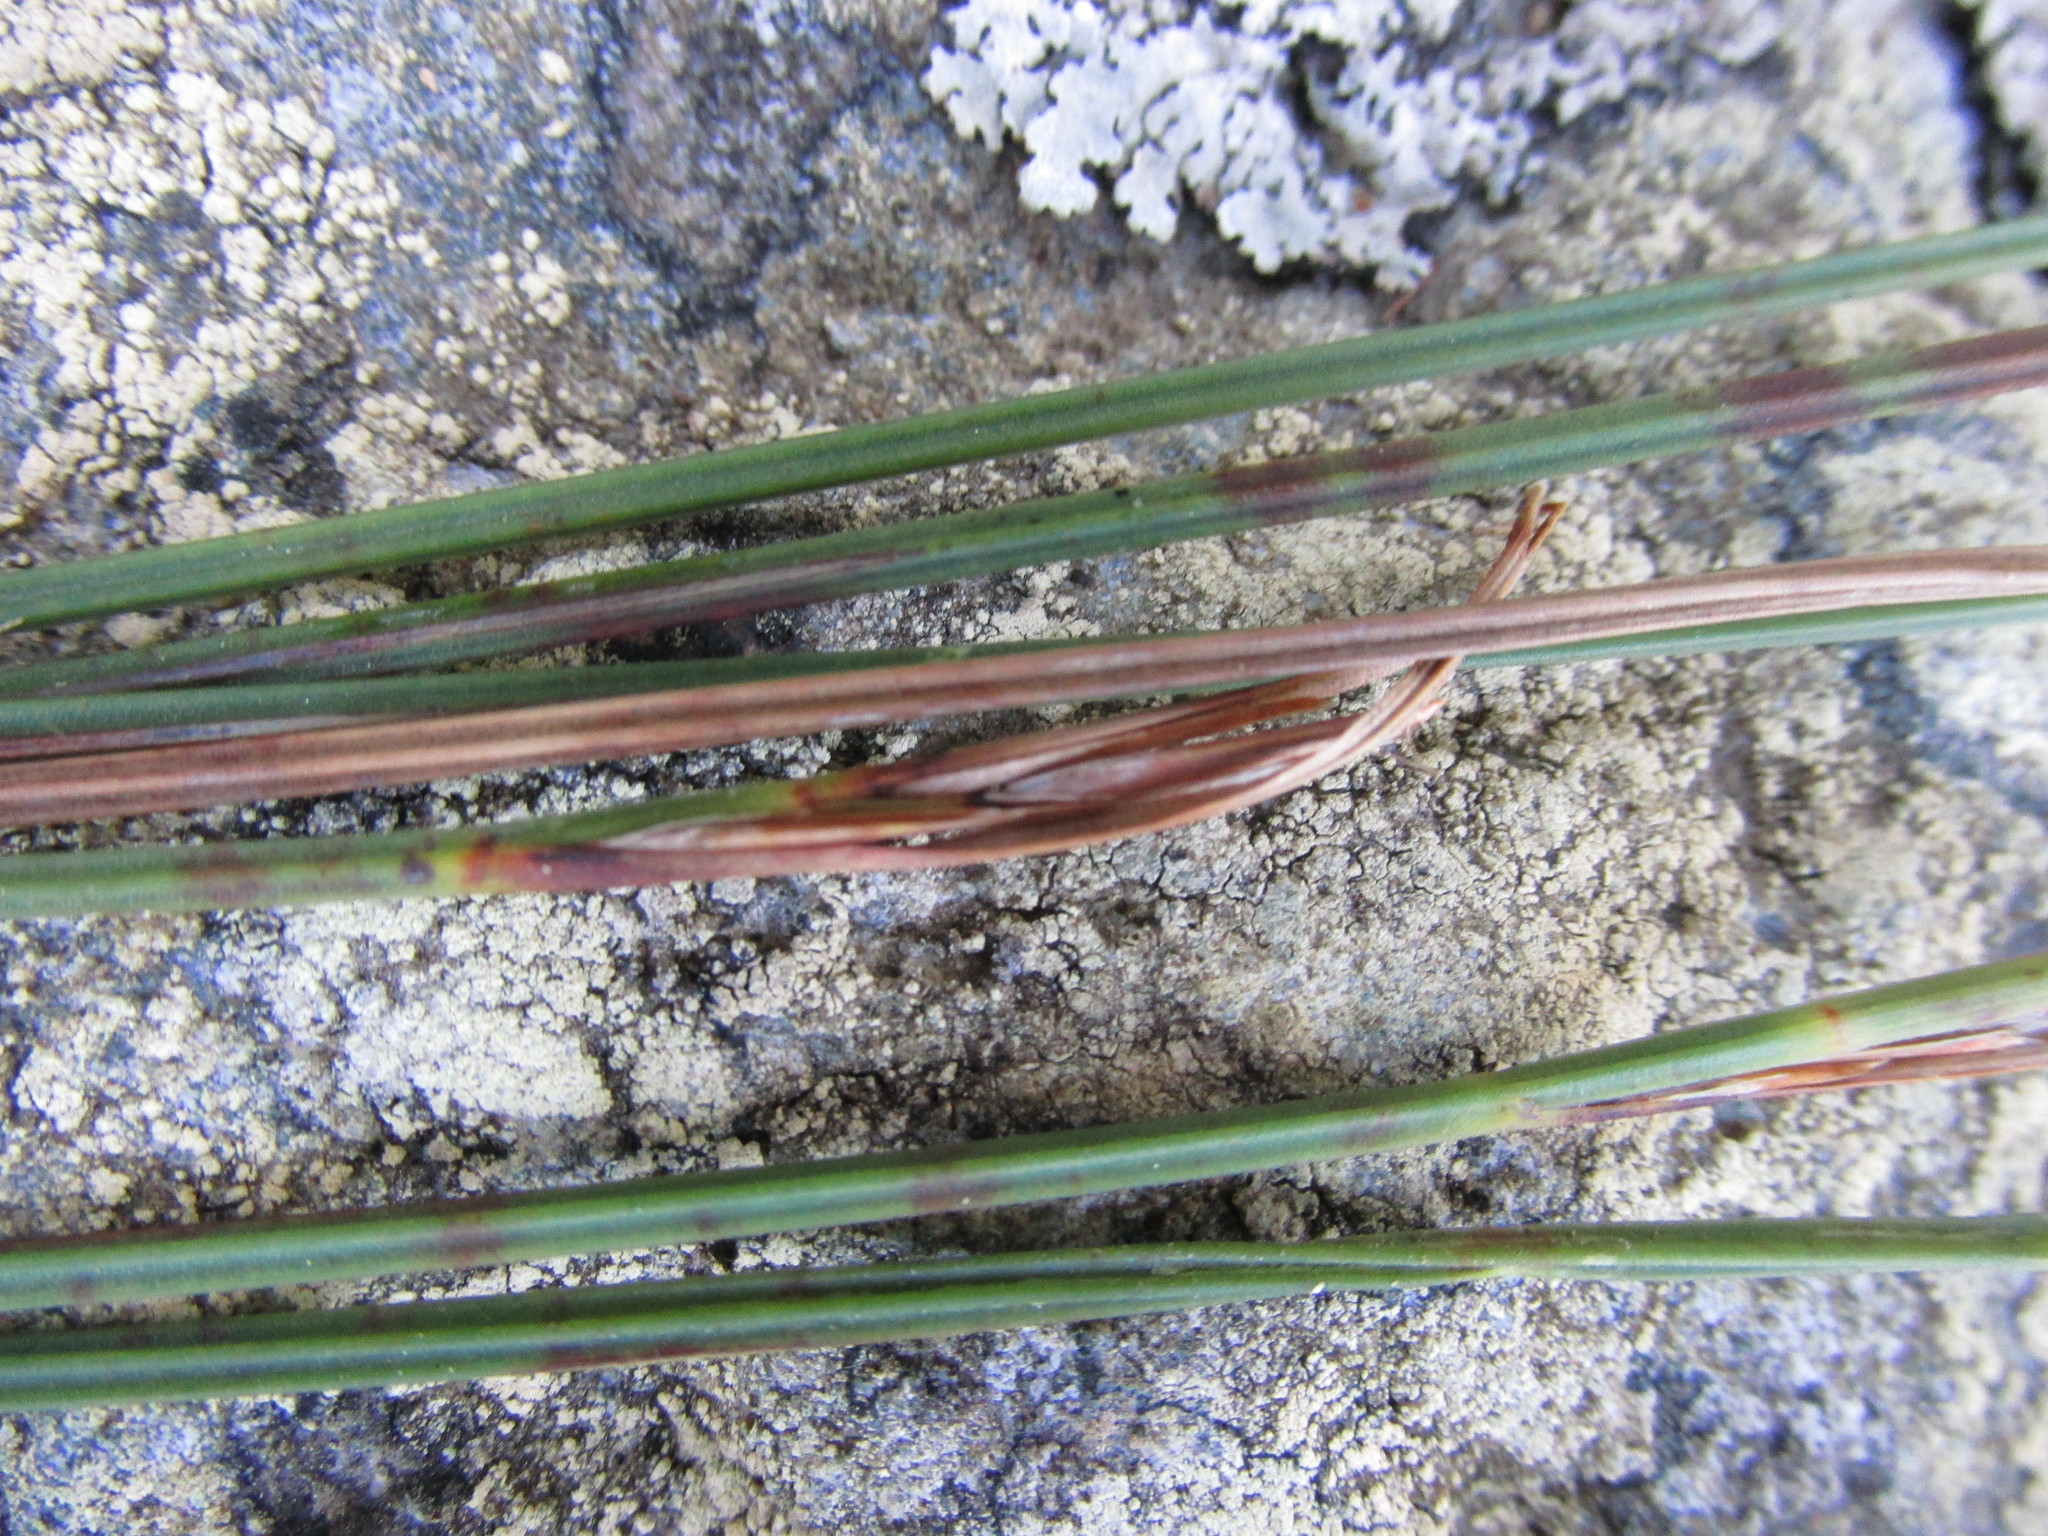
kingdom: Plantae
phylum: Tracheophyta
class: Liliopsida
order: Poales
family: Cyperaceae
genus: Schoenus
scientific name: Schoenus quadrangularis
